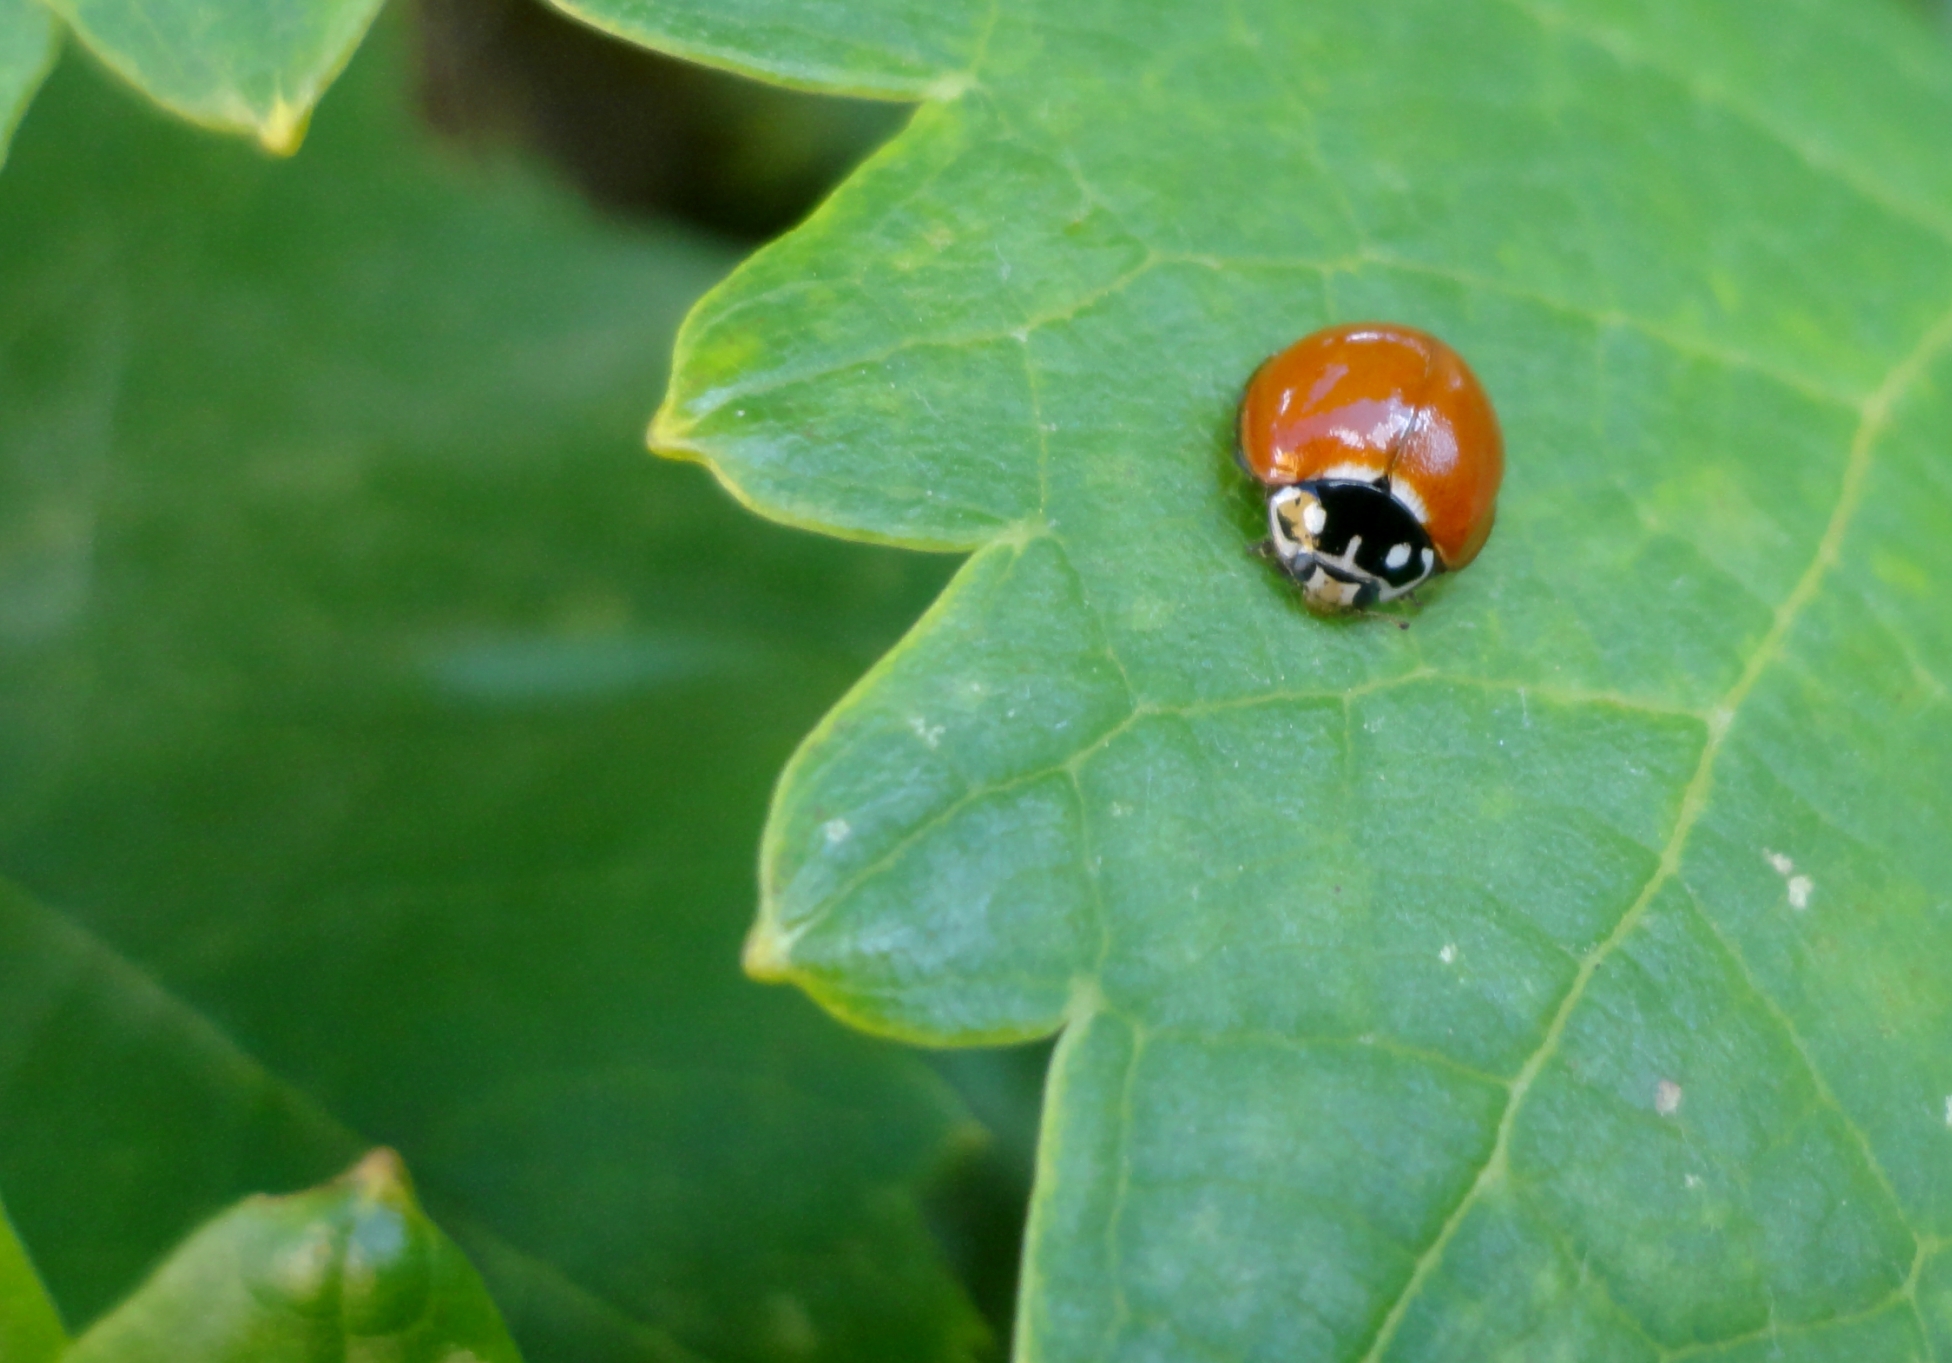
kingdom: Animalia
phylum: Arthropoda
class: Insecta
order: Coleoptera
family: Coccinellidae
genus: Cycloneda
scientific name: Cycloneda sanguinea
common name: Ladybird beetle
